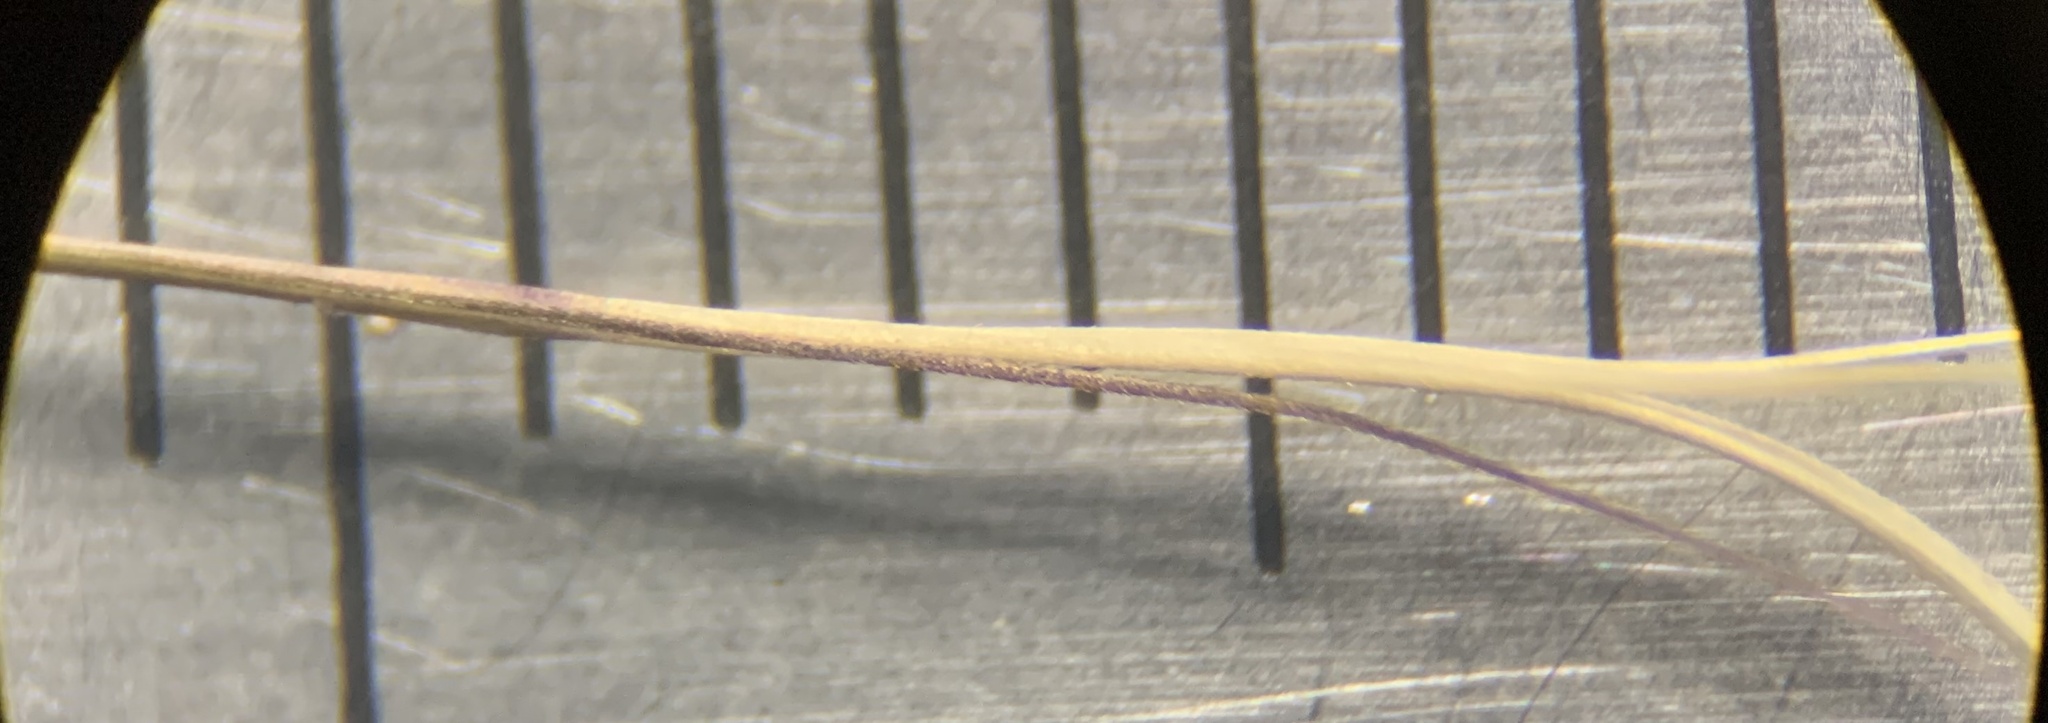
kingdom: Plantae
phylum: Tracheophyta
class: Liliopsida
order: Poales
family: Poaceae
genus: Aristida
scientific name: Aristida spiciformis
